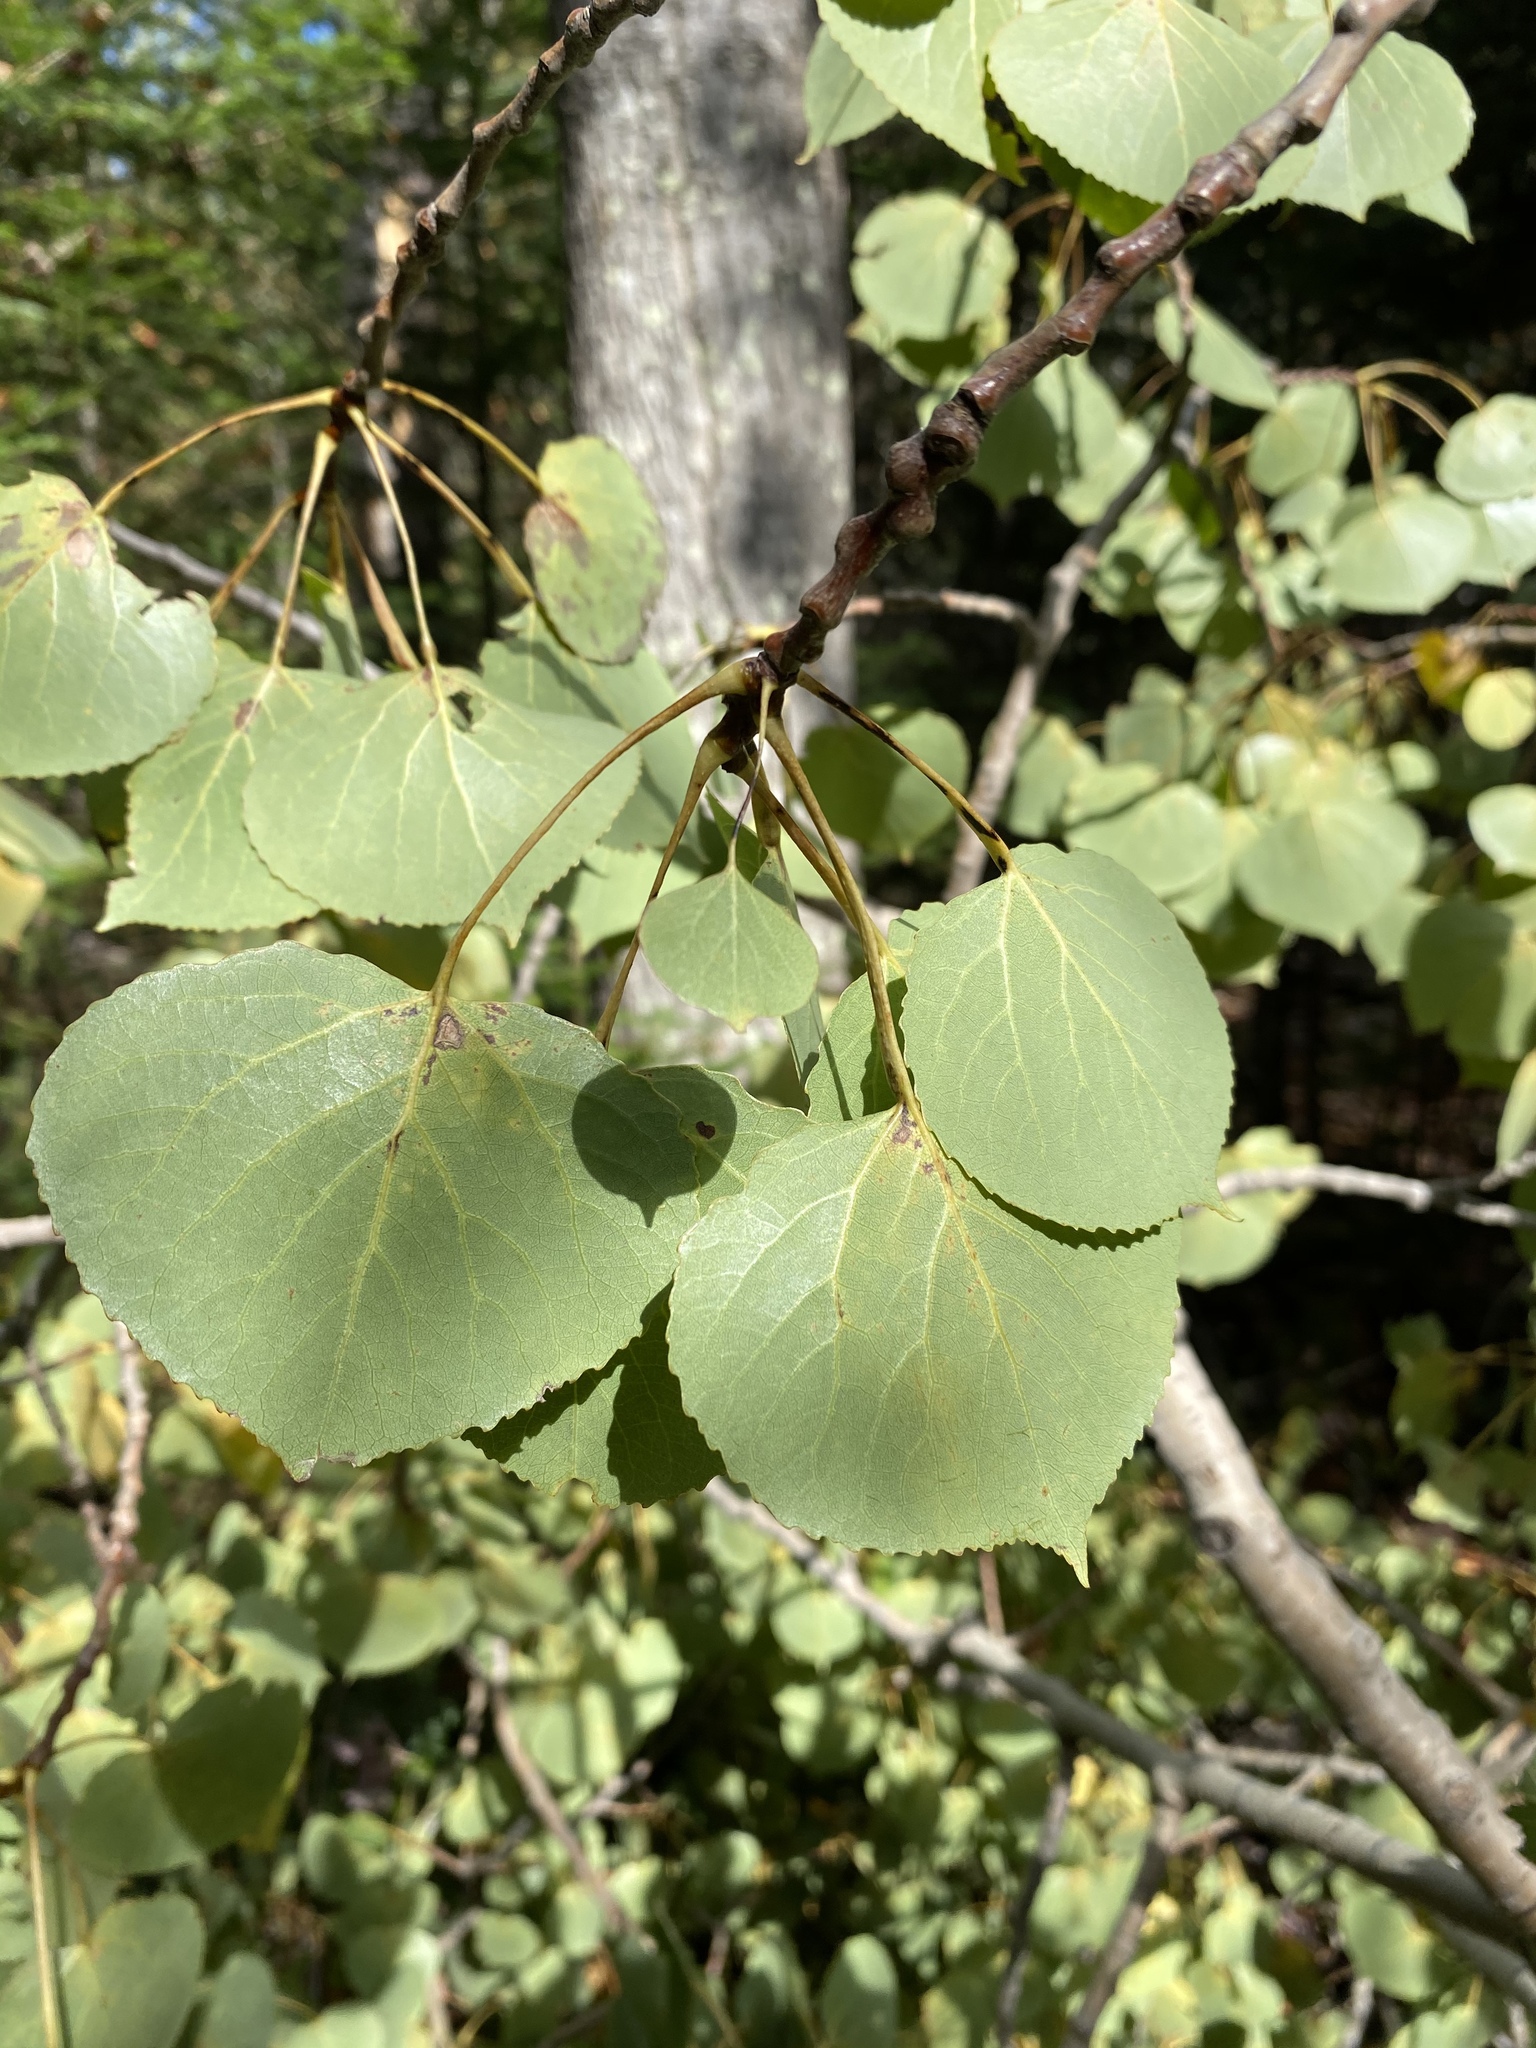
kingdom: Plantae
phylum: Tracheophyta
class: Magnoliopsida
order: Malpighiales
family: Salicaceae
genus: Populus
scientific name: Populus tremuloides
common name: Quaking aspen
